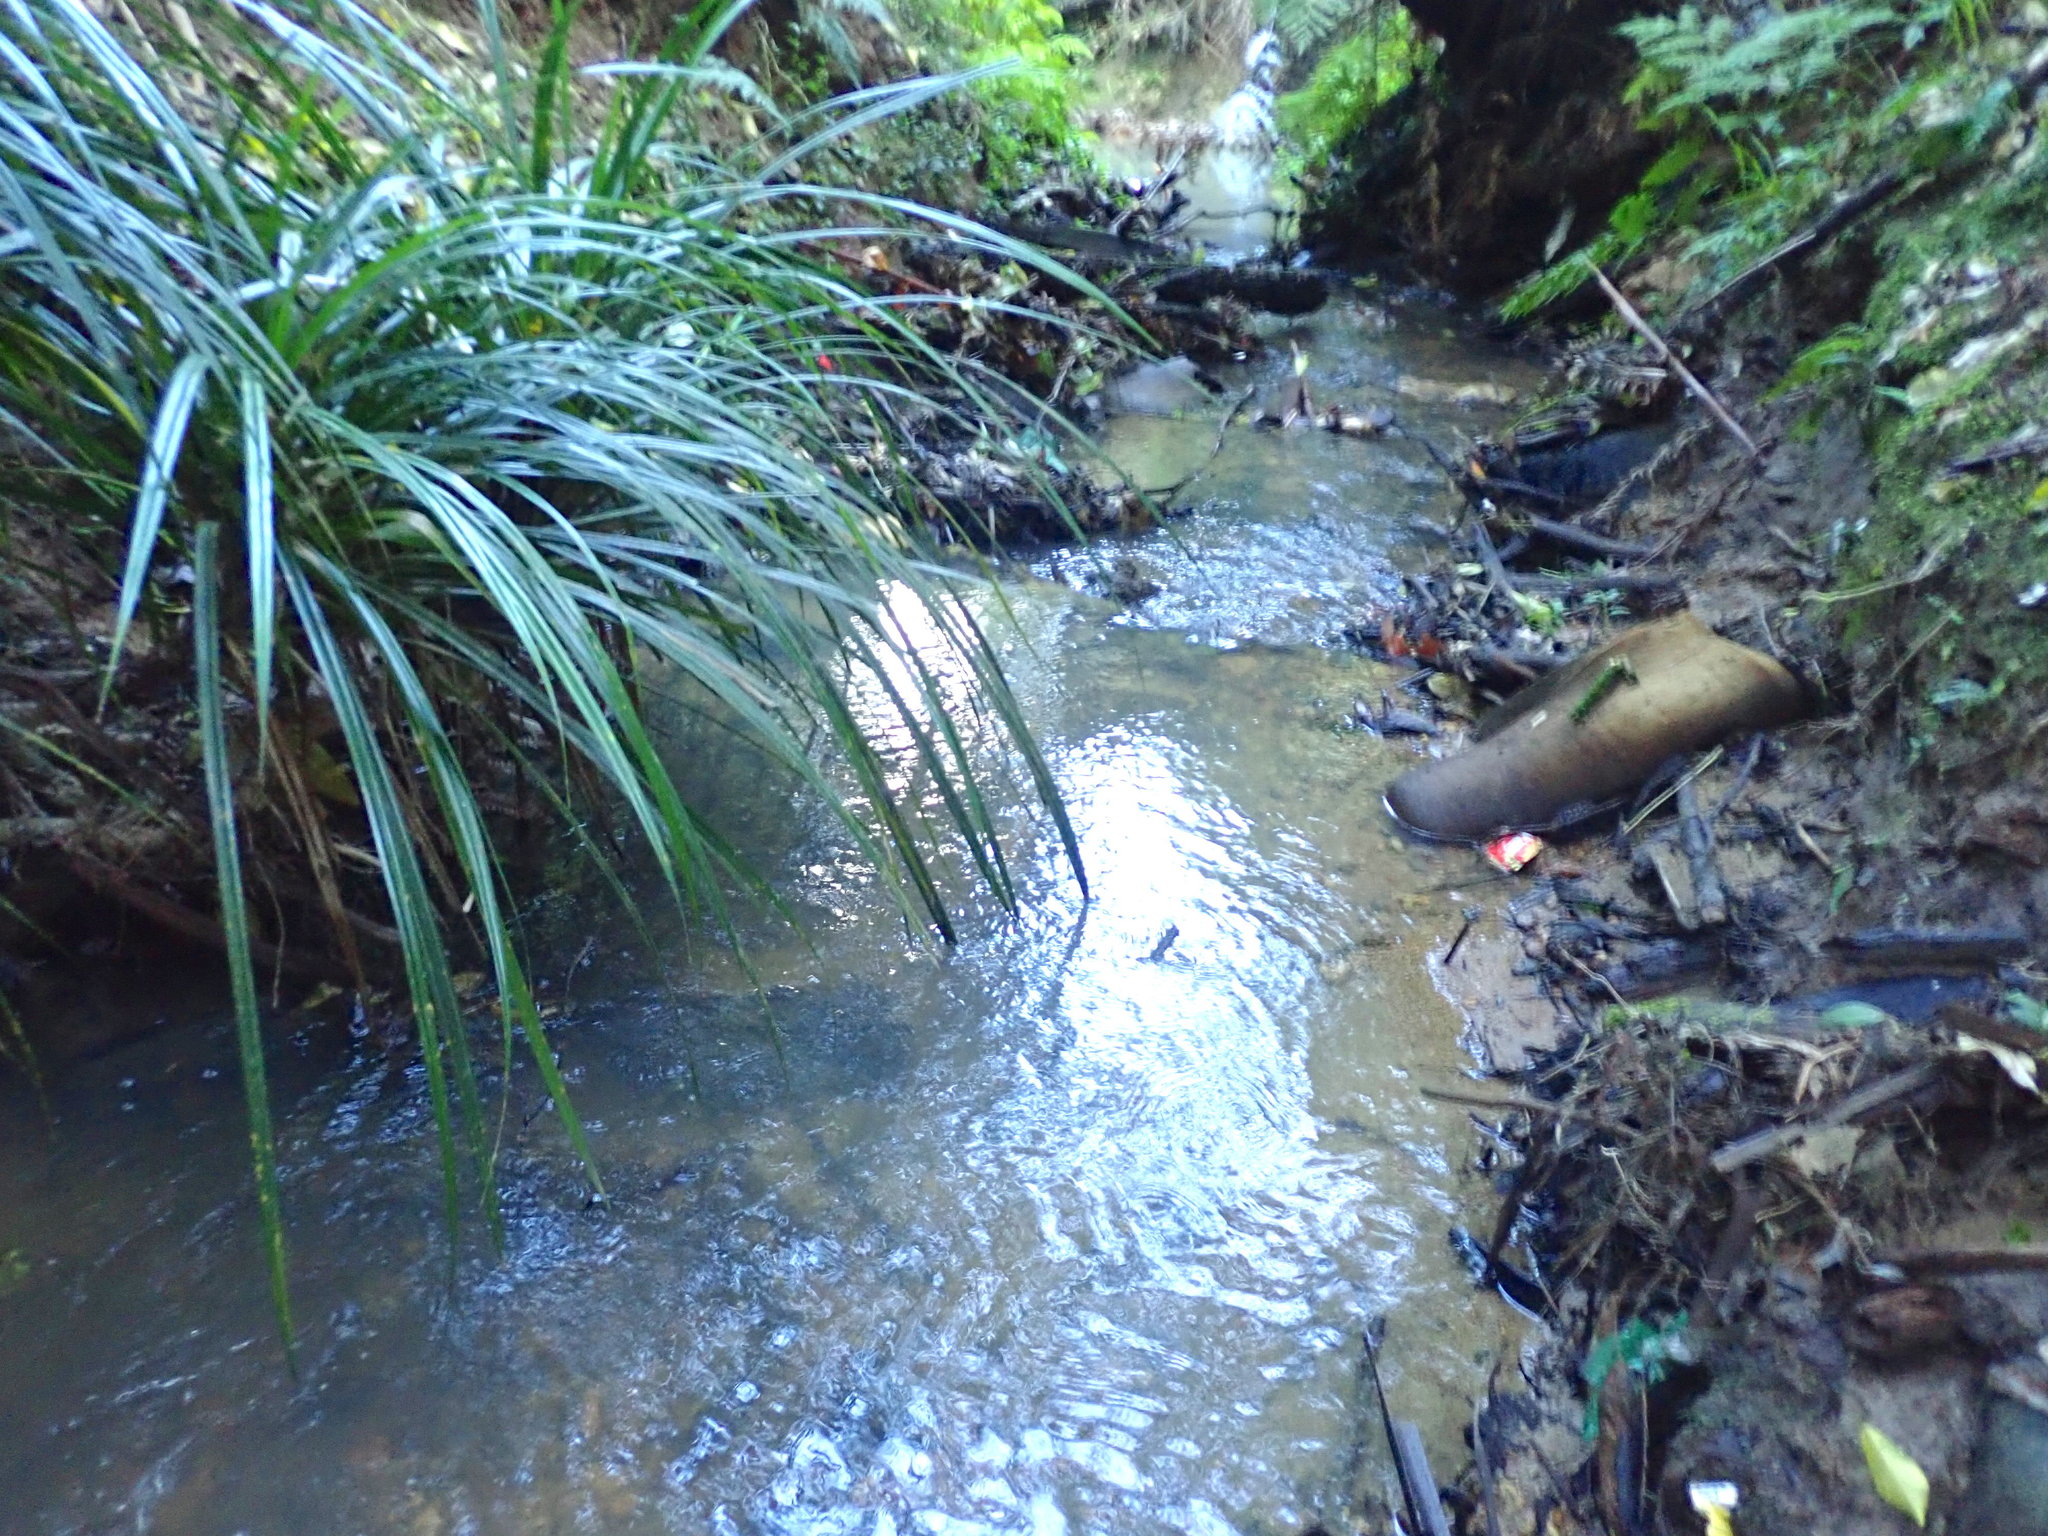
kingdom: Plantae
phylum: Tracheophyta
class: Liliopsida
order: Pandanales
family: Pandanaceae
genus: Freycinetia
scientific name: Freycinetia banksii
